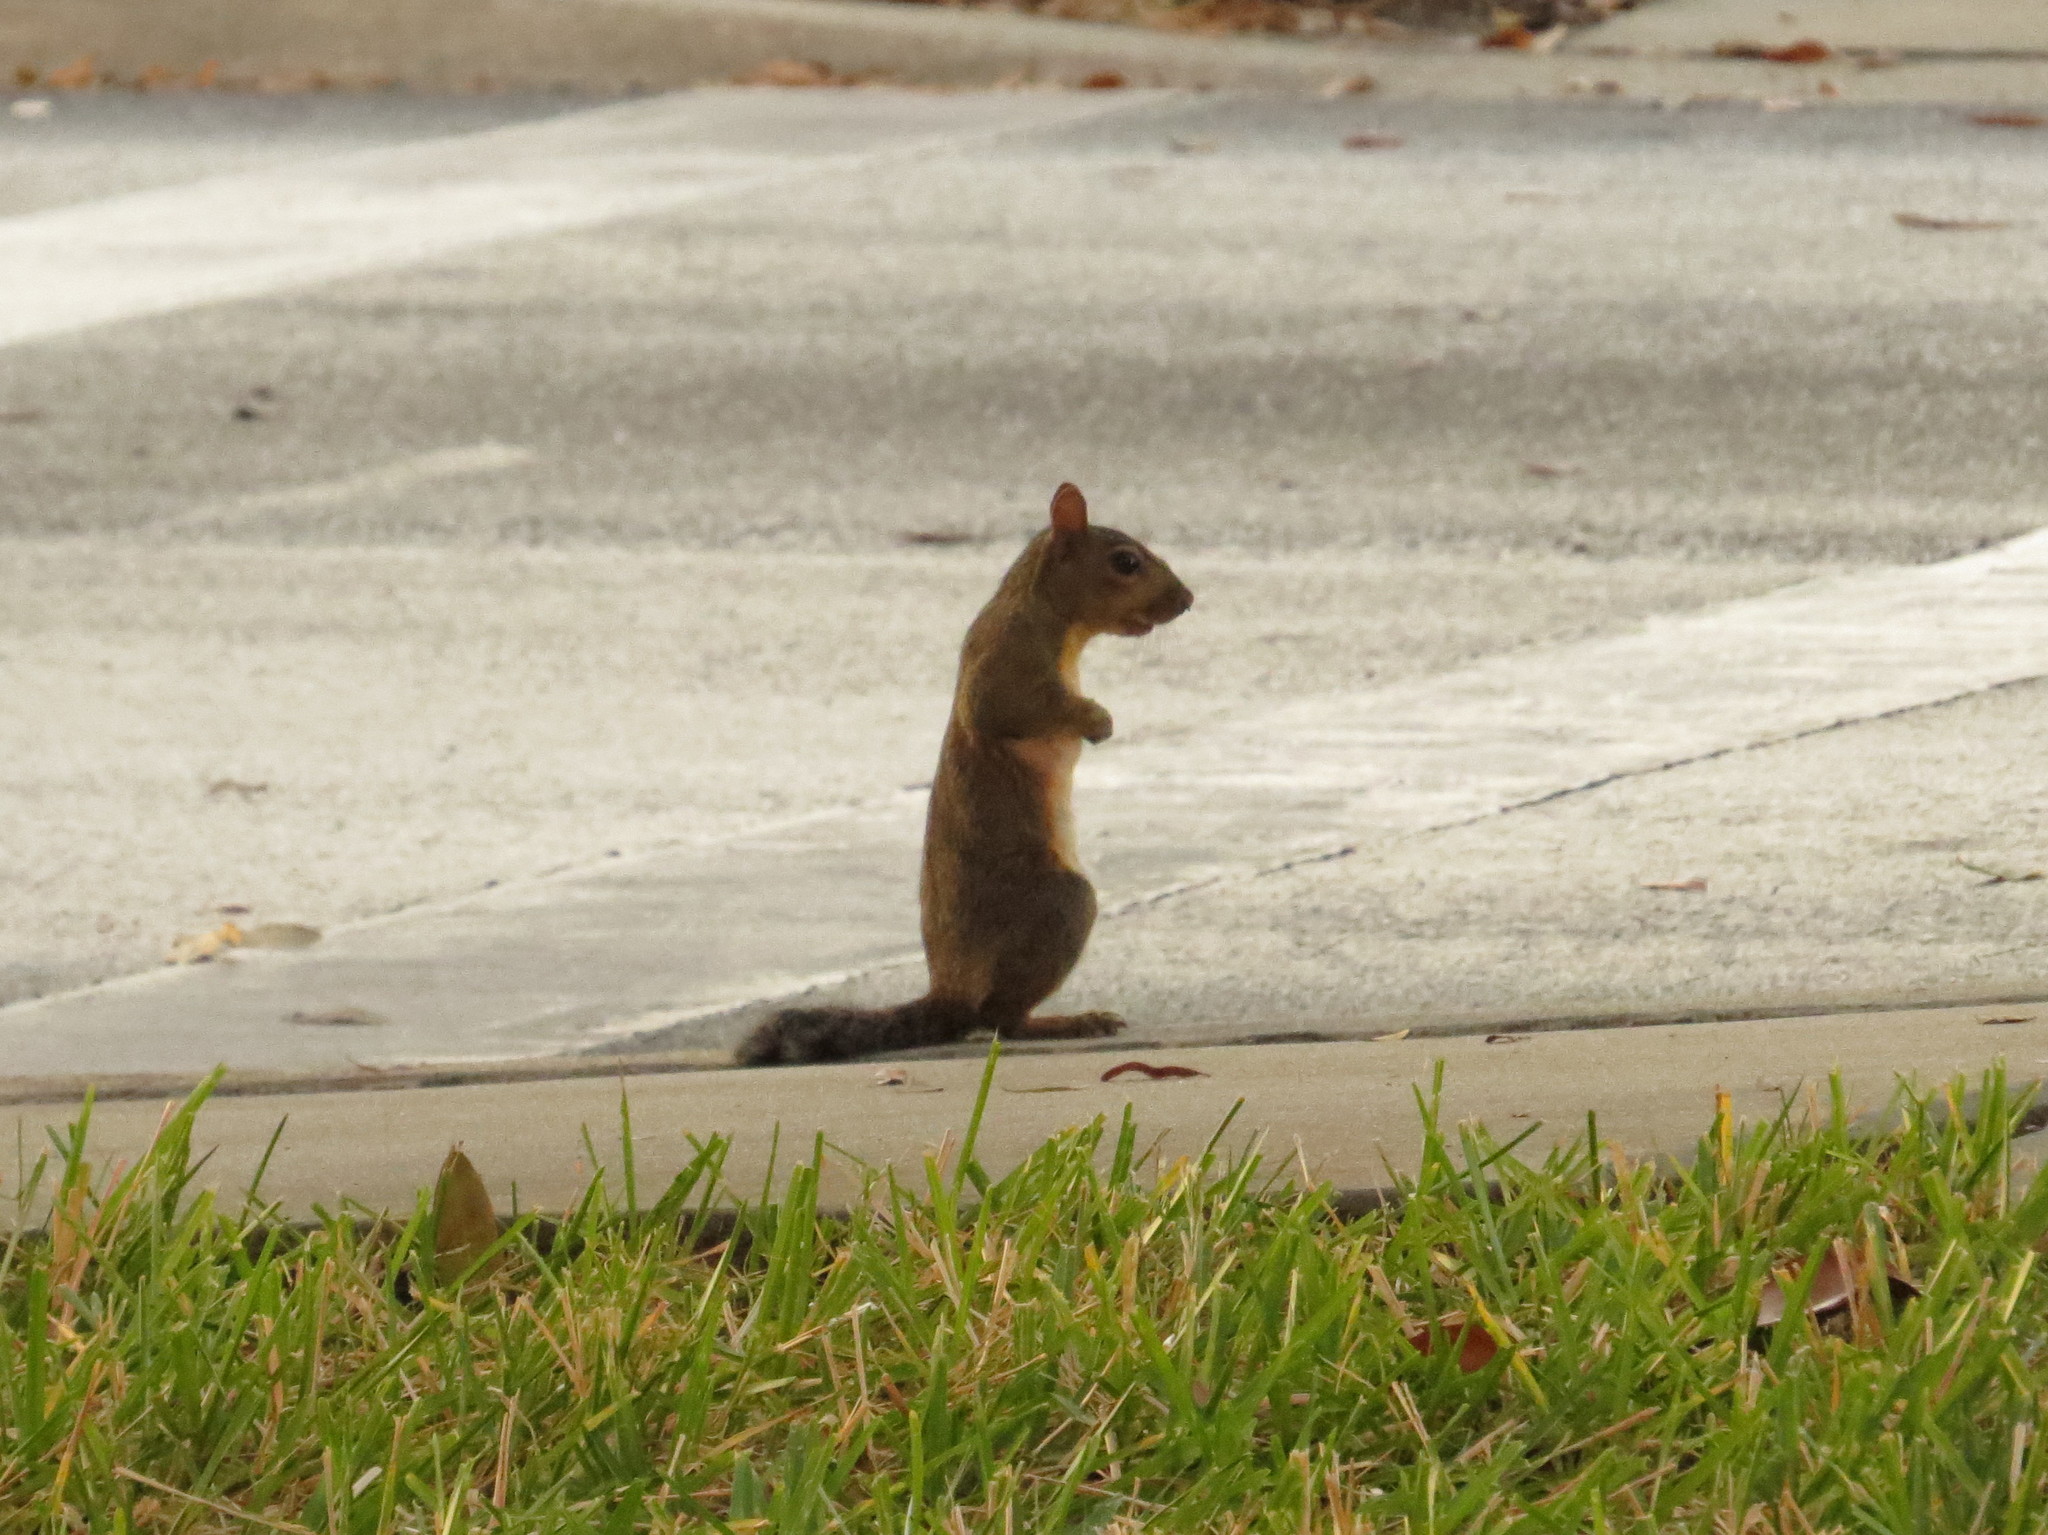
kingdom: Animalia
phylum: Chordata
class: Mammalia
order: Rodentia
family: Sciuridae
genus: Sciurus
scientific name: Sciurus carolinensis
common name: Eastern gray squirrel
